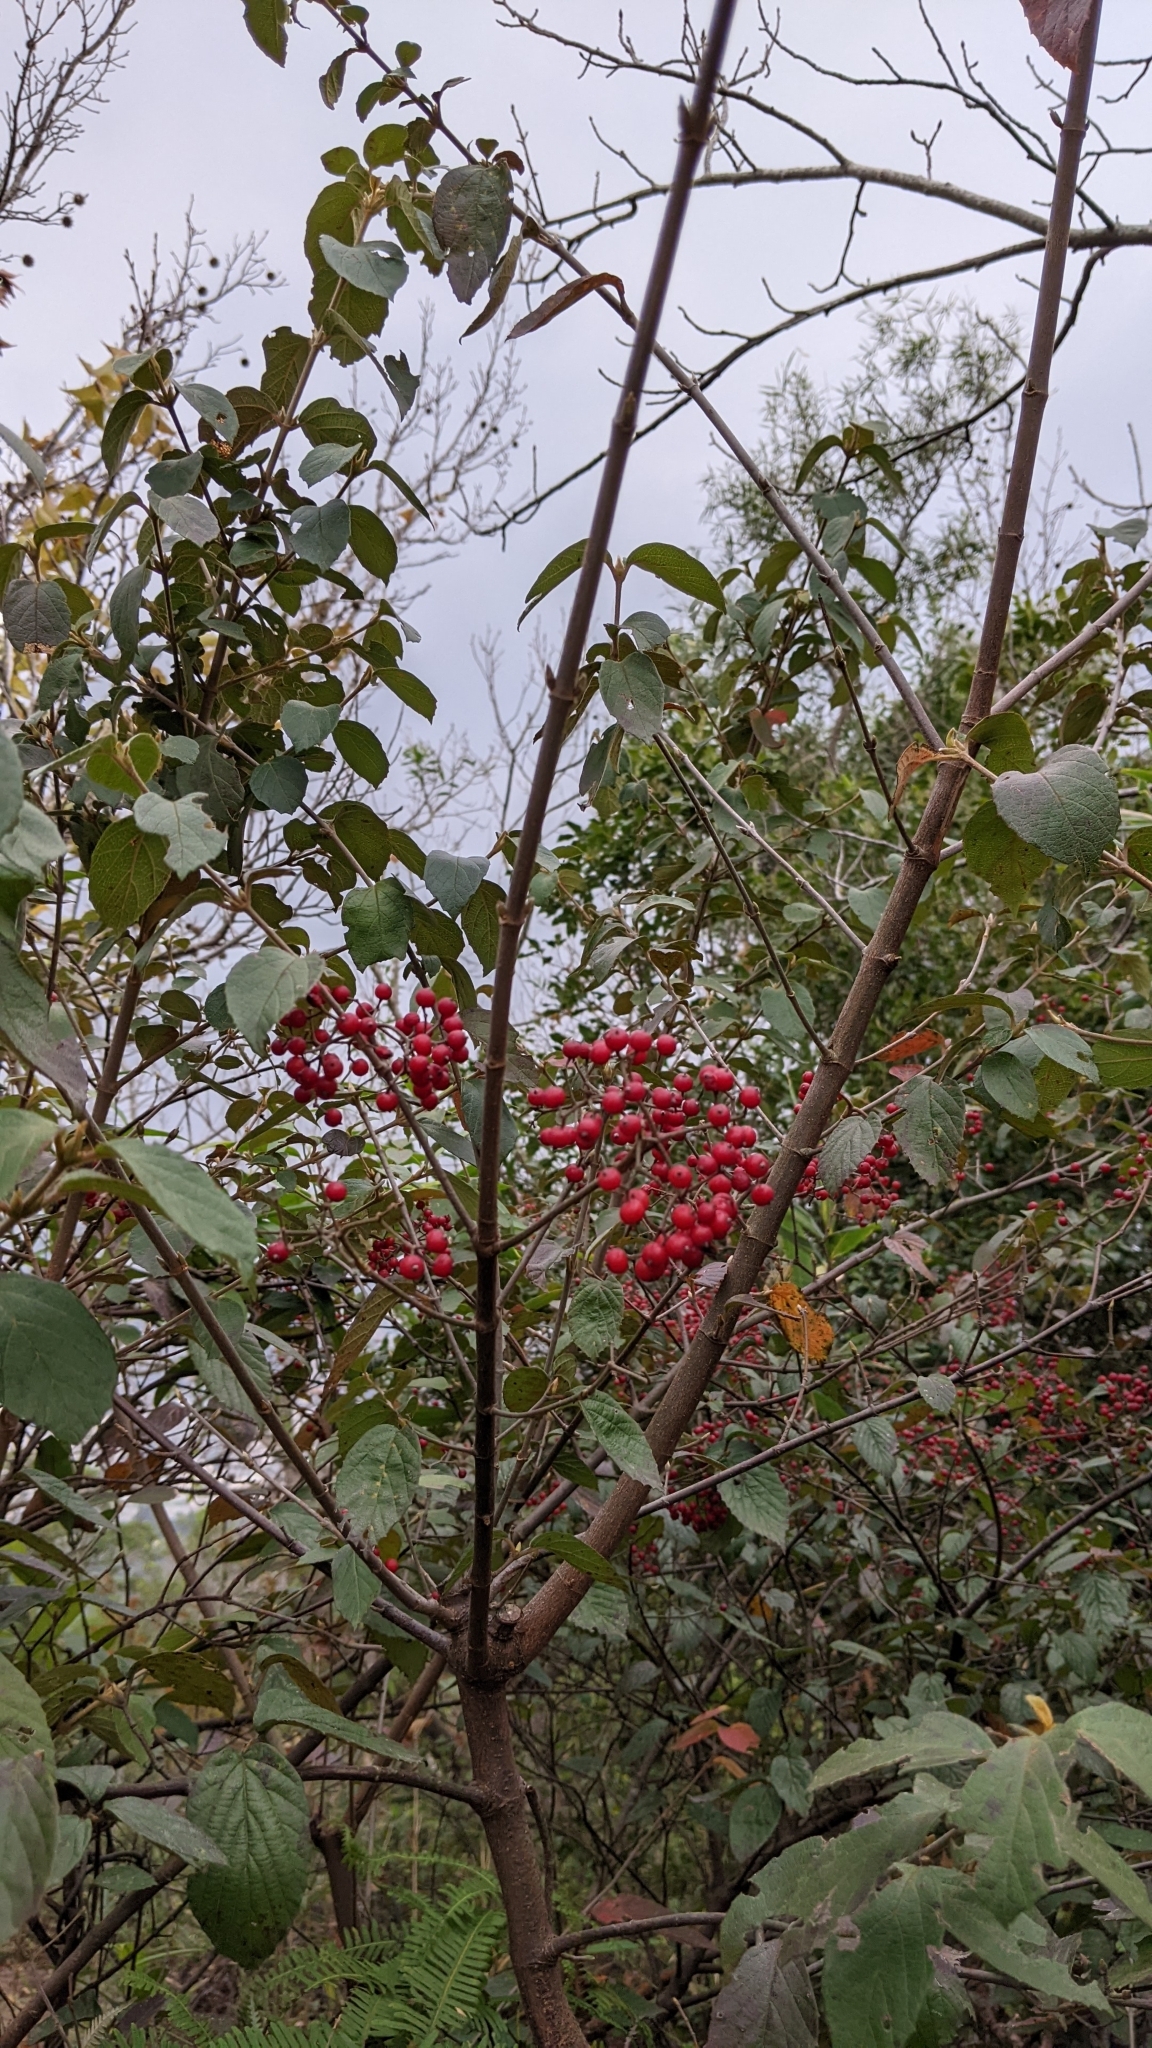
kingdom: Plantae
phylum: Tracheophyta
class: Magnoliopsida
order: Dipsacales
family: Viburnaceae
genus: Viburnum
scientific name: Viburnum luzonicum
